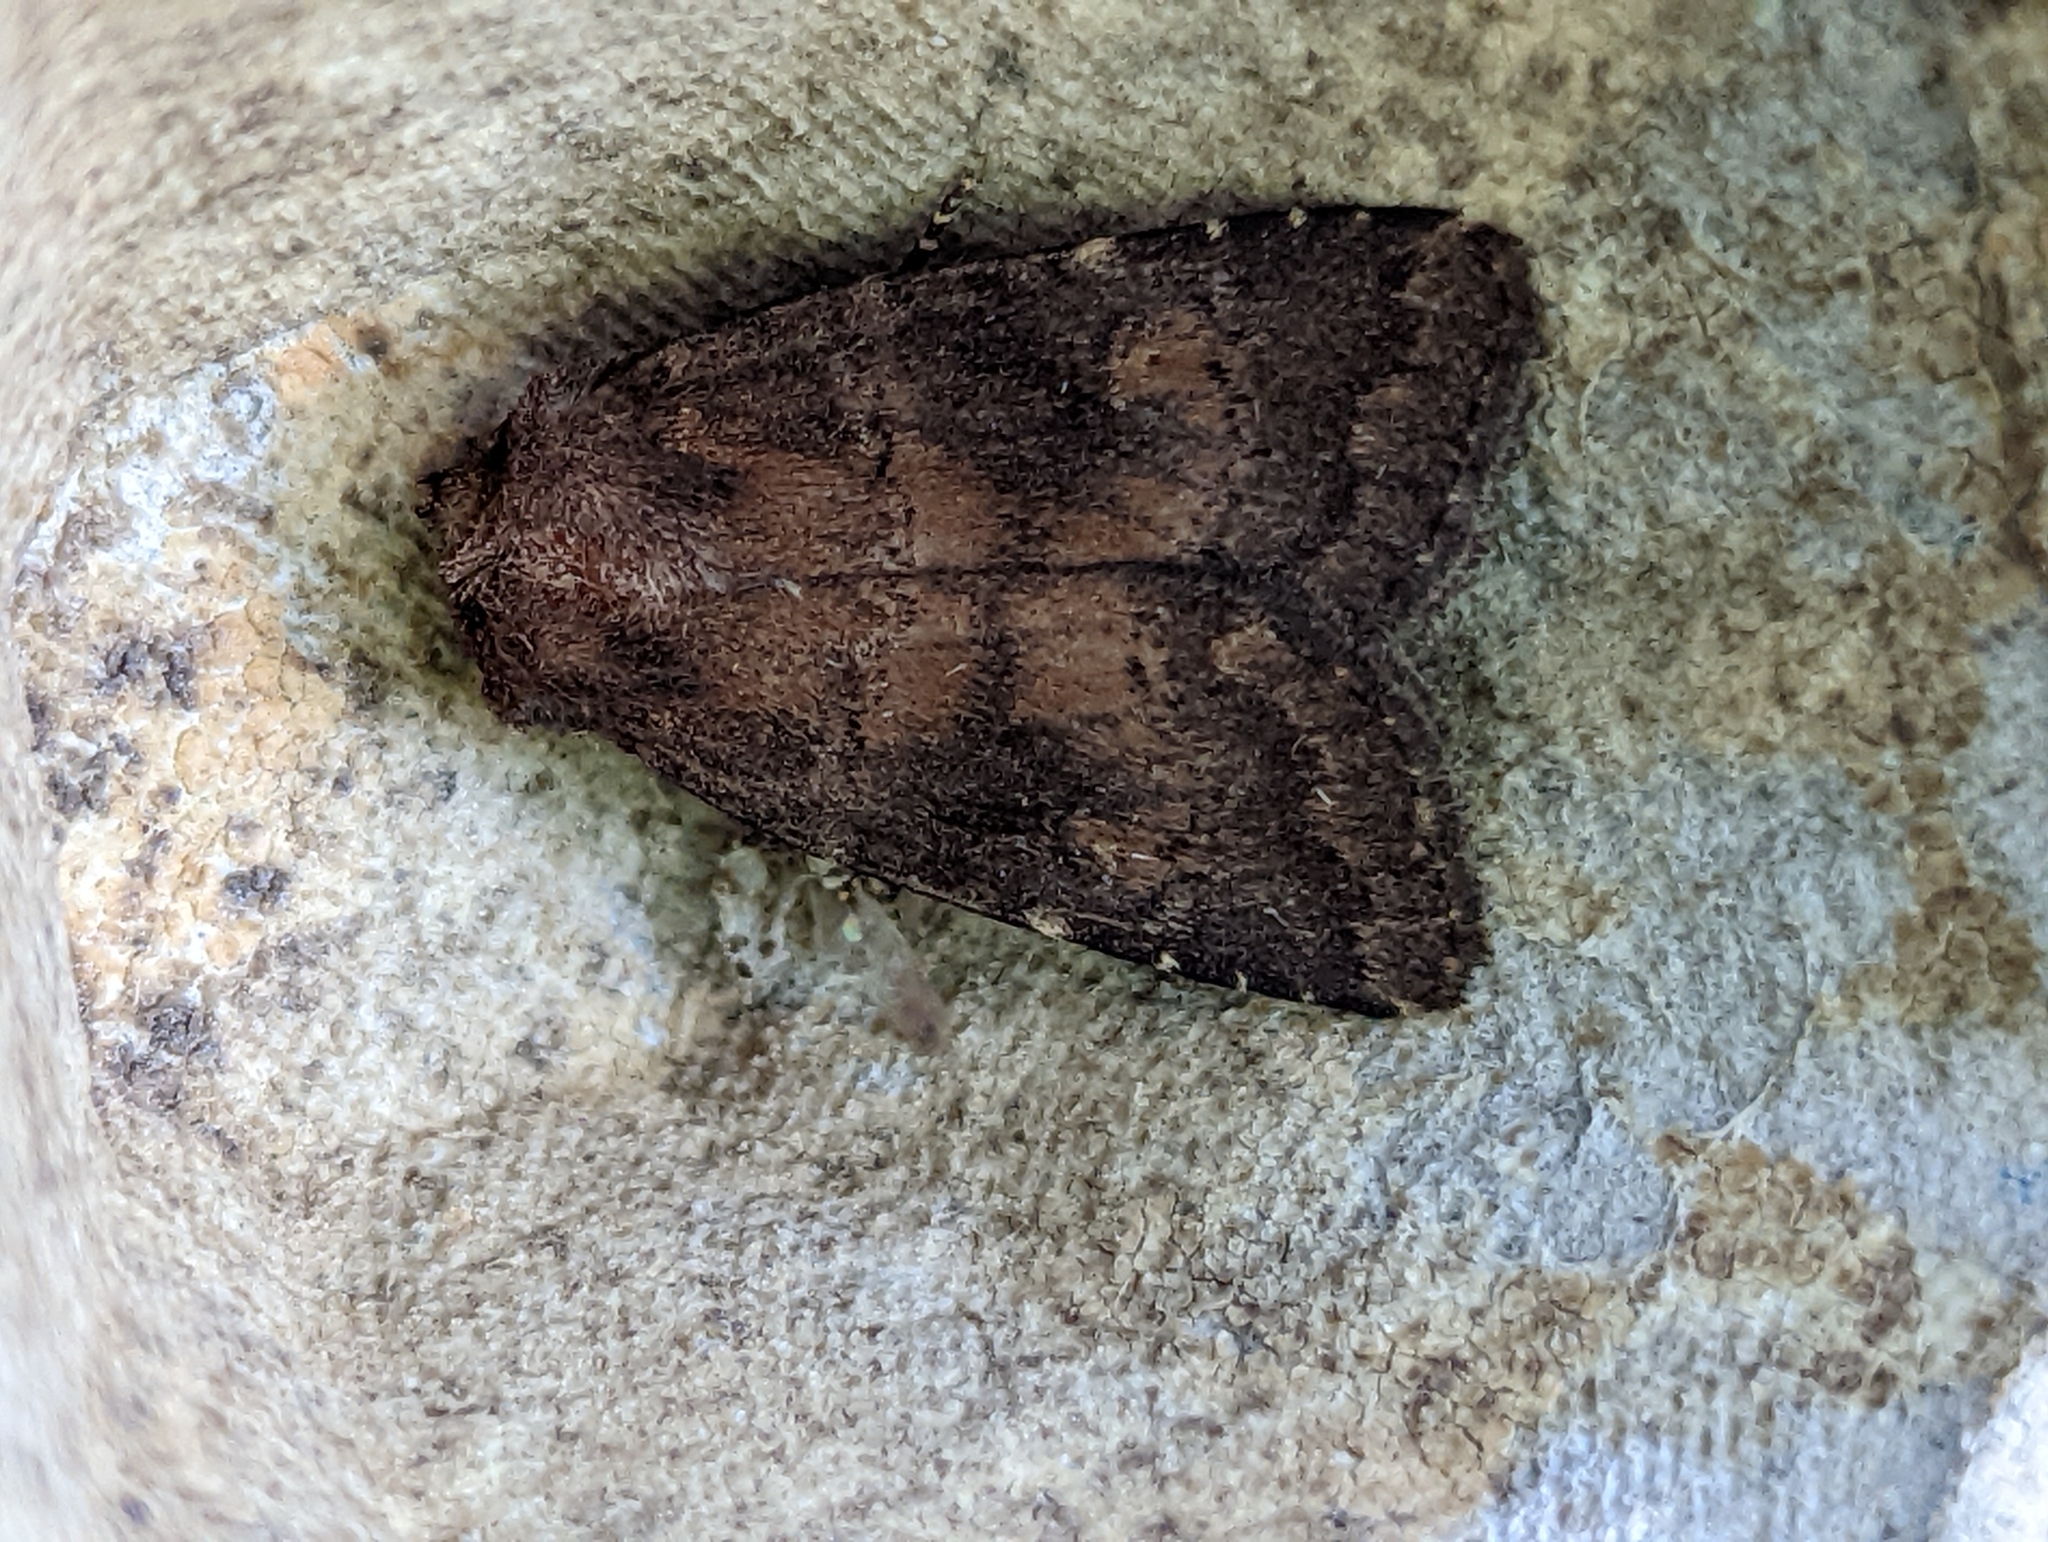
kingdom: Animalia
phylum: Arthropoda
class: Insecta
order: Lepidoptera
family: Noctuidae
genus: Charanyca
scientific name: Charanyca ferruginea
